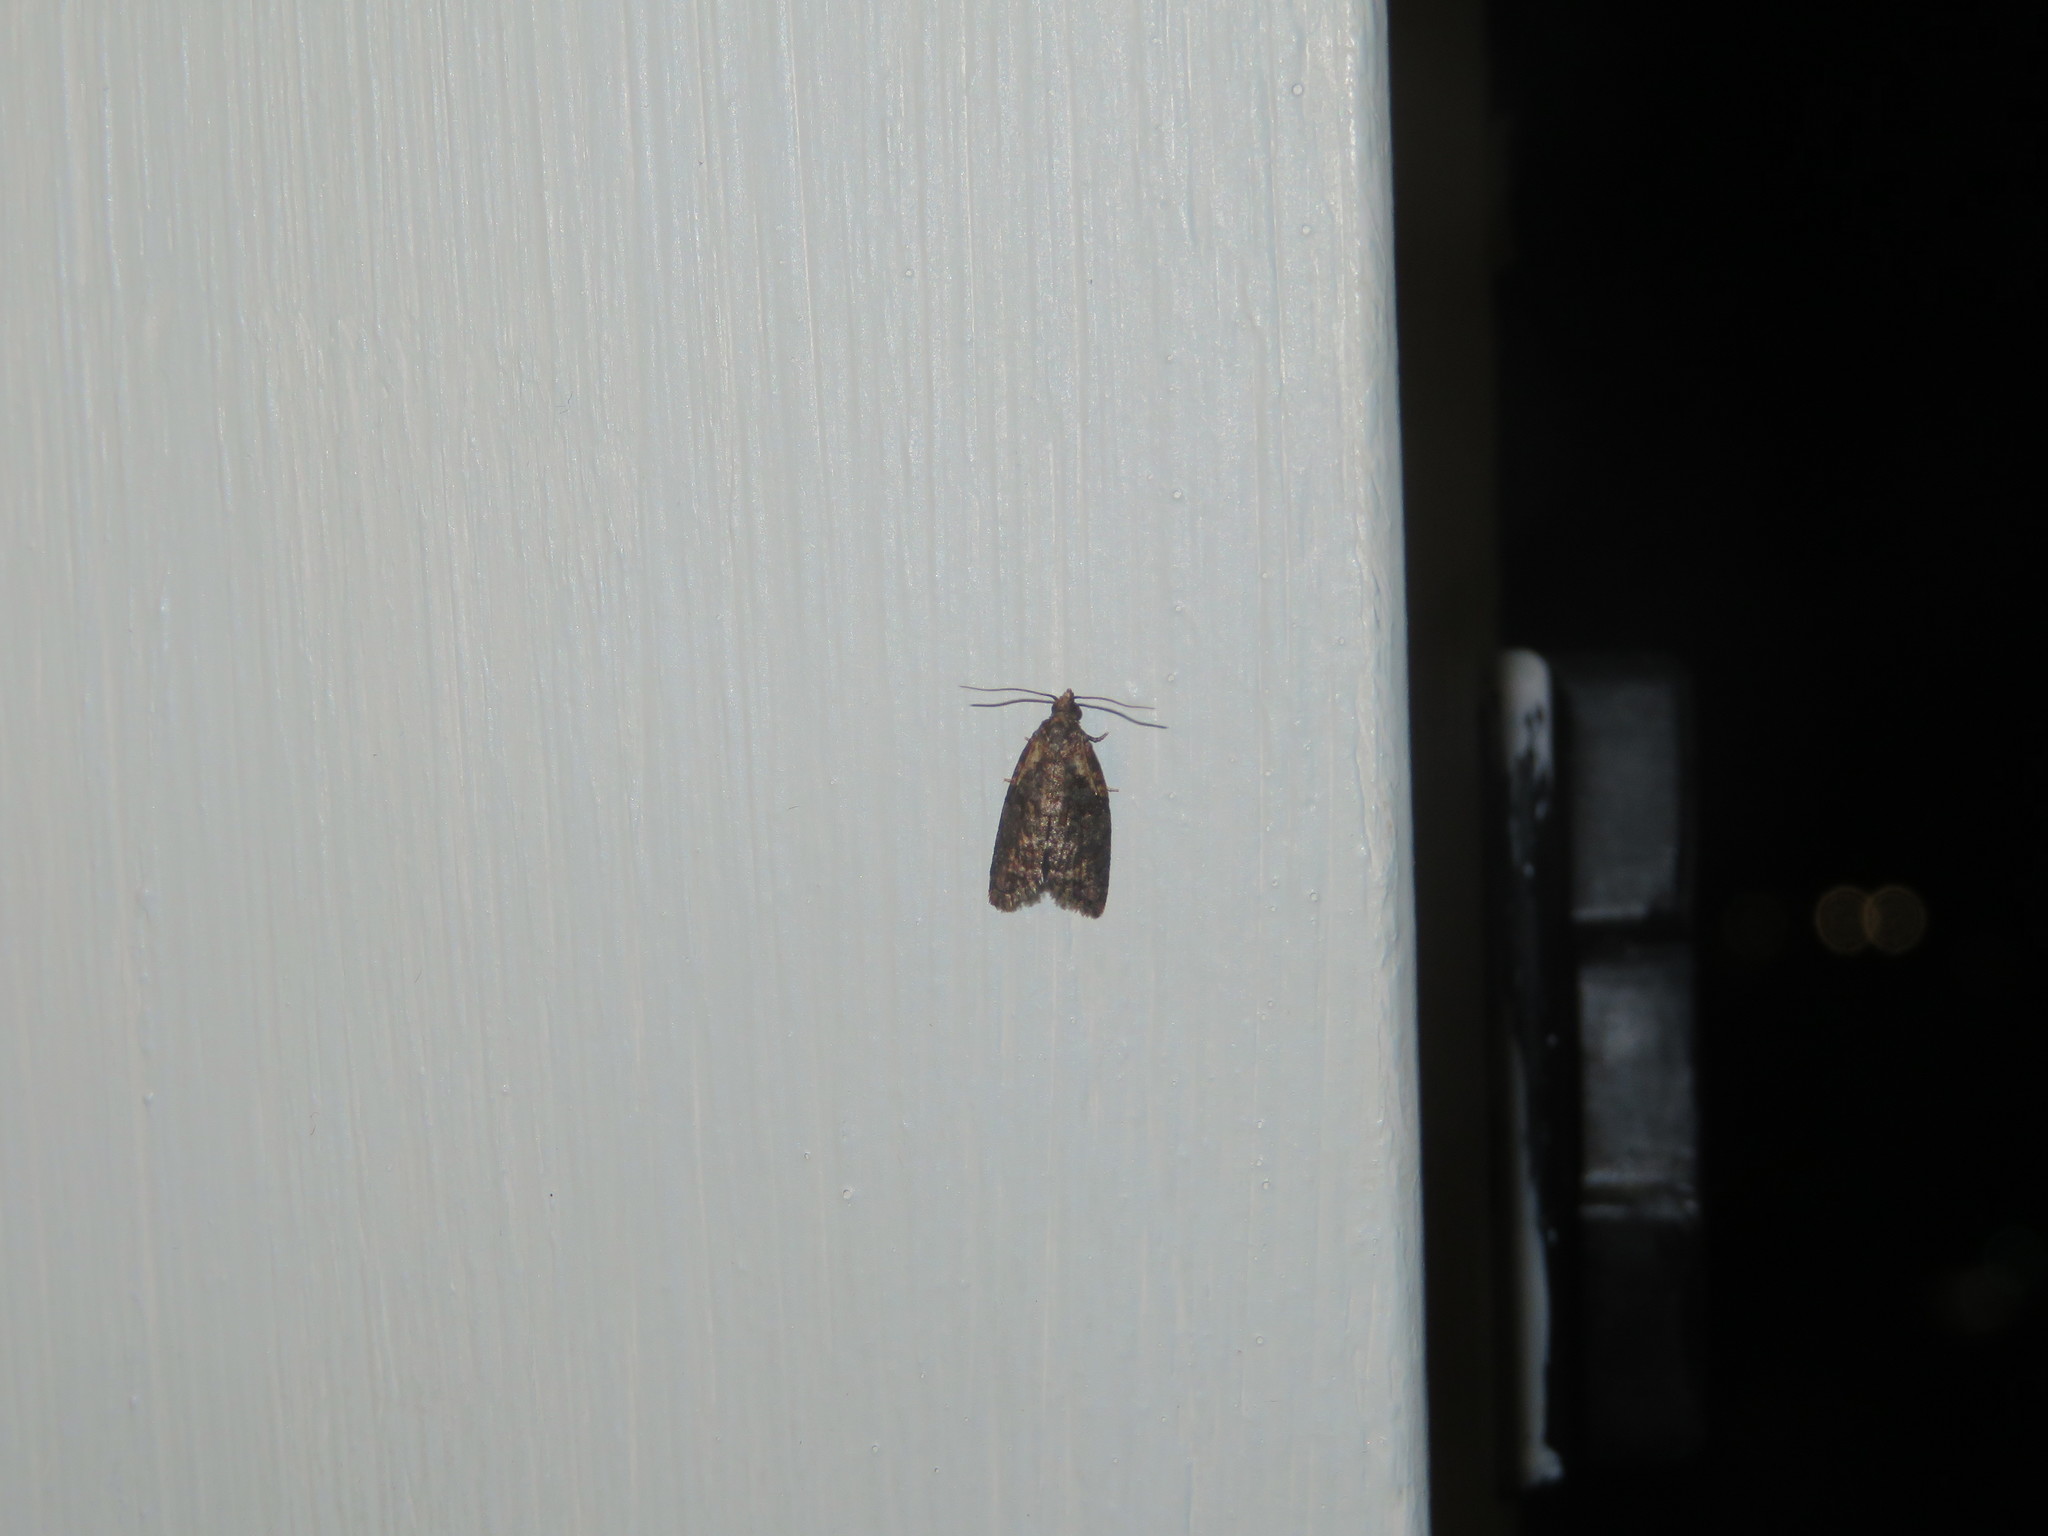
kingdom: Animalia
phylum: Arthropoda
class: Insecta
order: Lepidoptera
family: Tortricidae
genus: Capua
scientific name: Capua intractana
